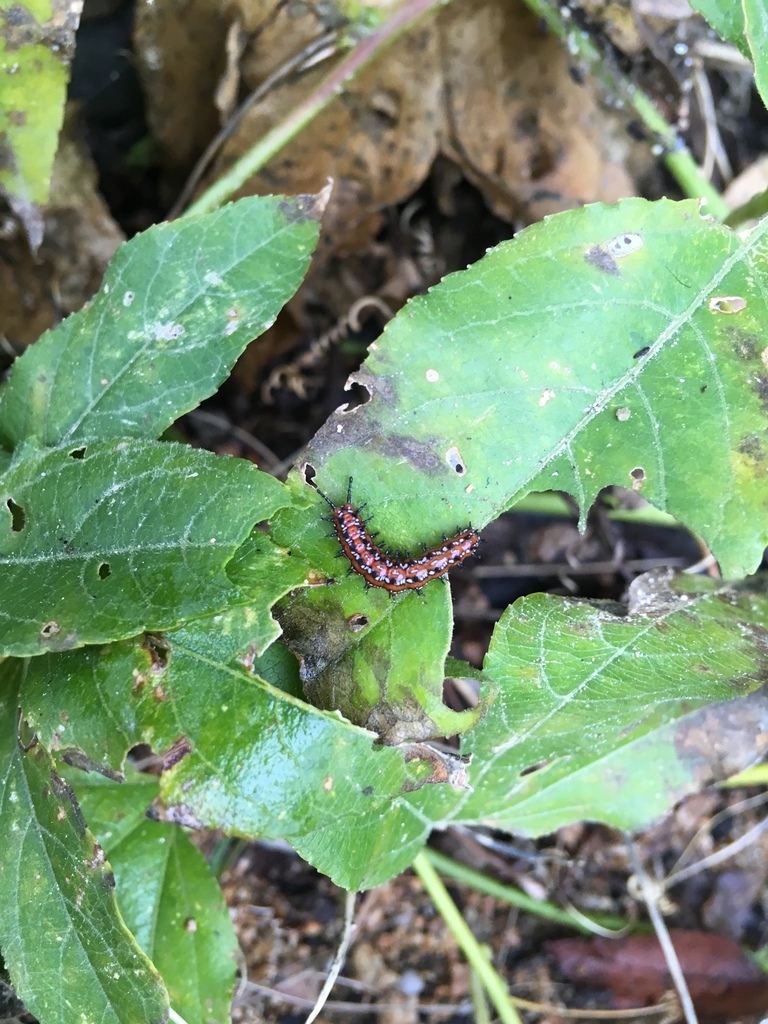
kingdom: Animalia
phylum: Arthropoda
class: Insecta
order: Lepidoptera
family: Nymphalidae
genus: Euptoieta
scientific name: Euptoieta claudia
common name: Variegated fritillary
